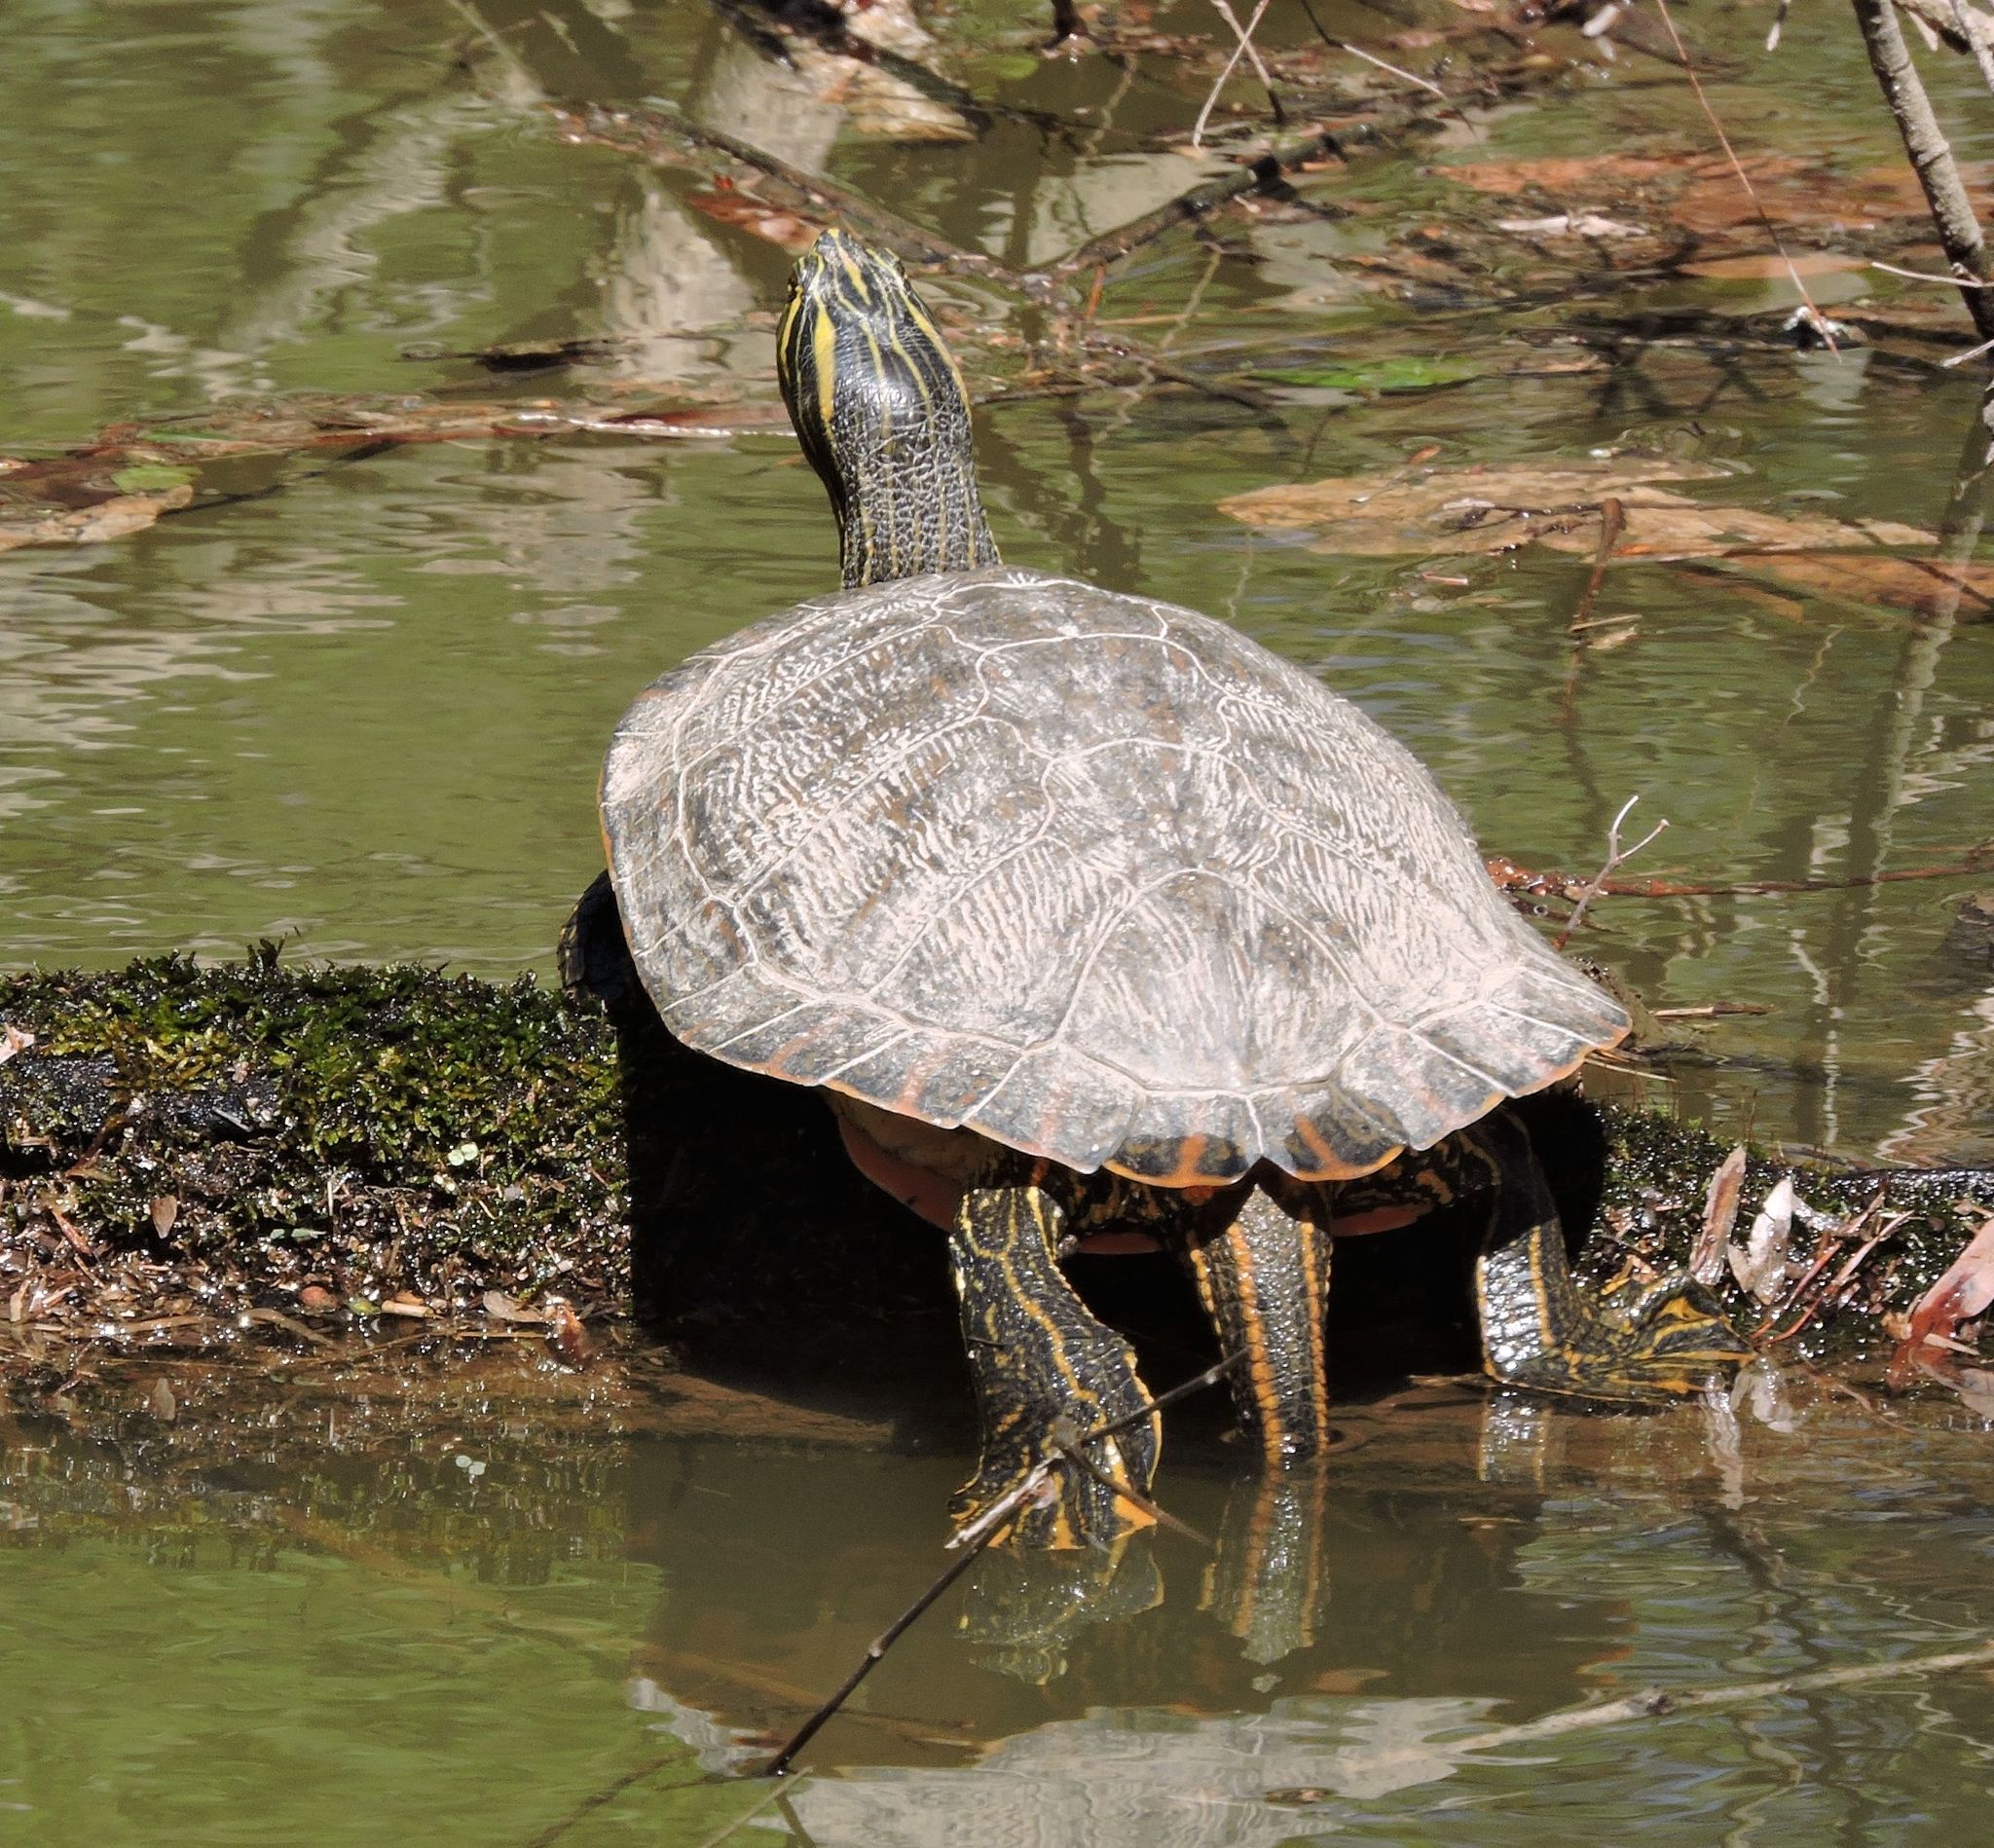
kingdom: Animalia
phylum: Chordata
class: Testudines
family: Emydidae
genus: Pseudemys
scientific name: Pseudemys concinna
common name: Eastern river cooter
